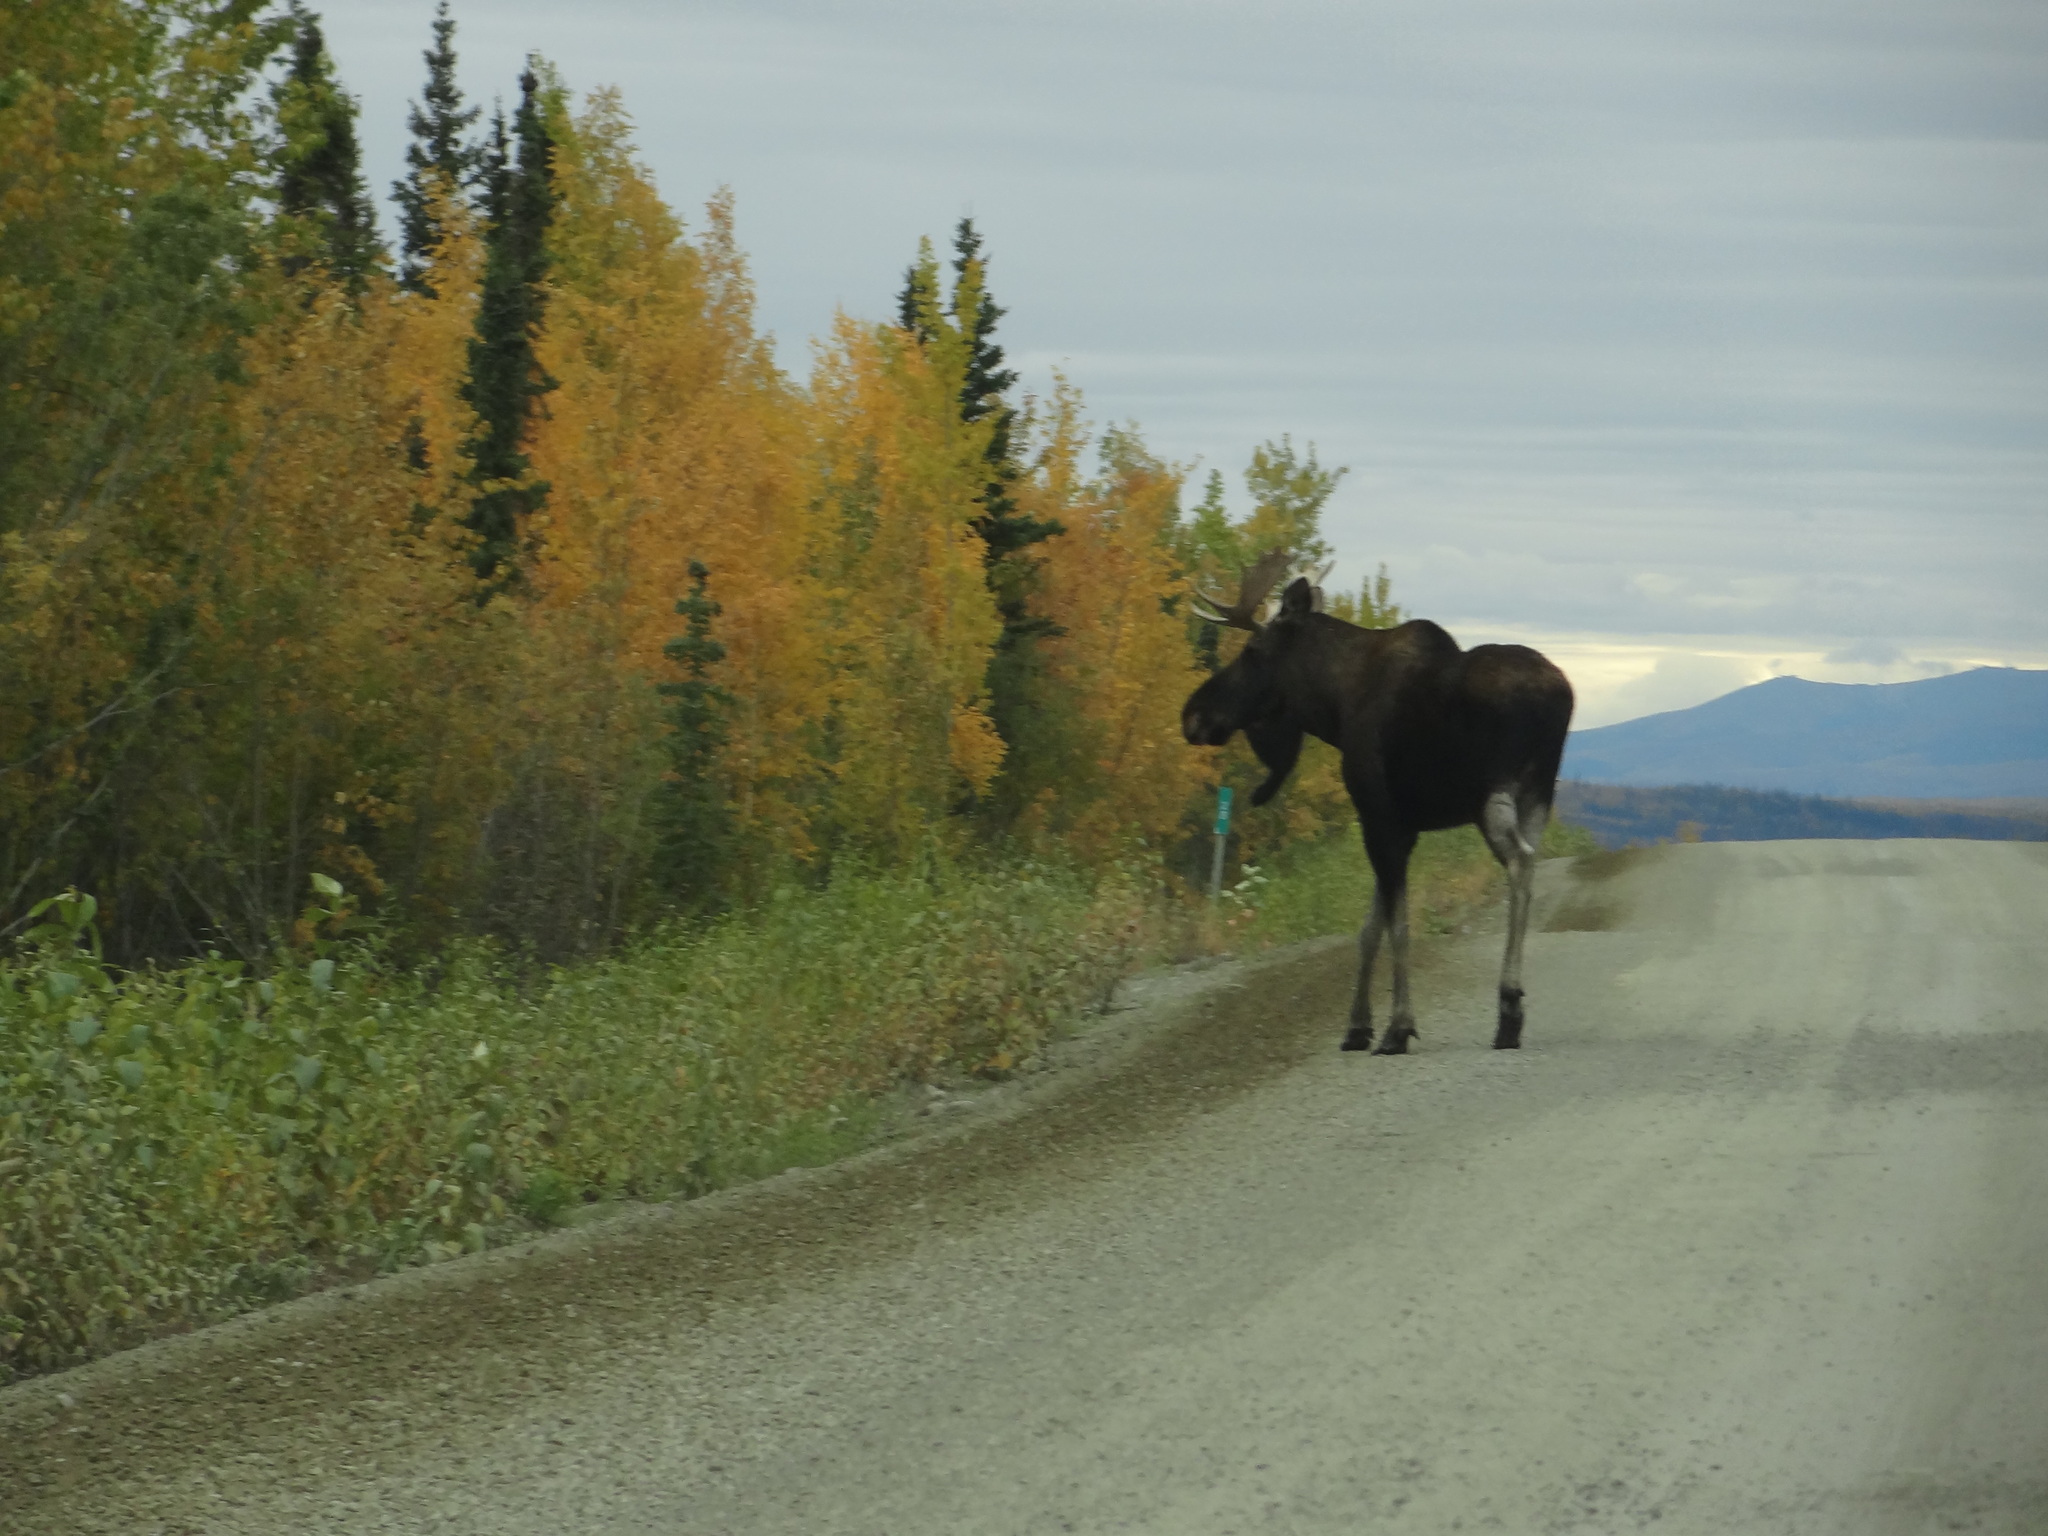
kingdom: Animalia
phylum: Chordata
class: Mammalia
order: Artiodactyla
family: Cervidae
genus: Alces
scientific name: Alces alces
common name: Moose
